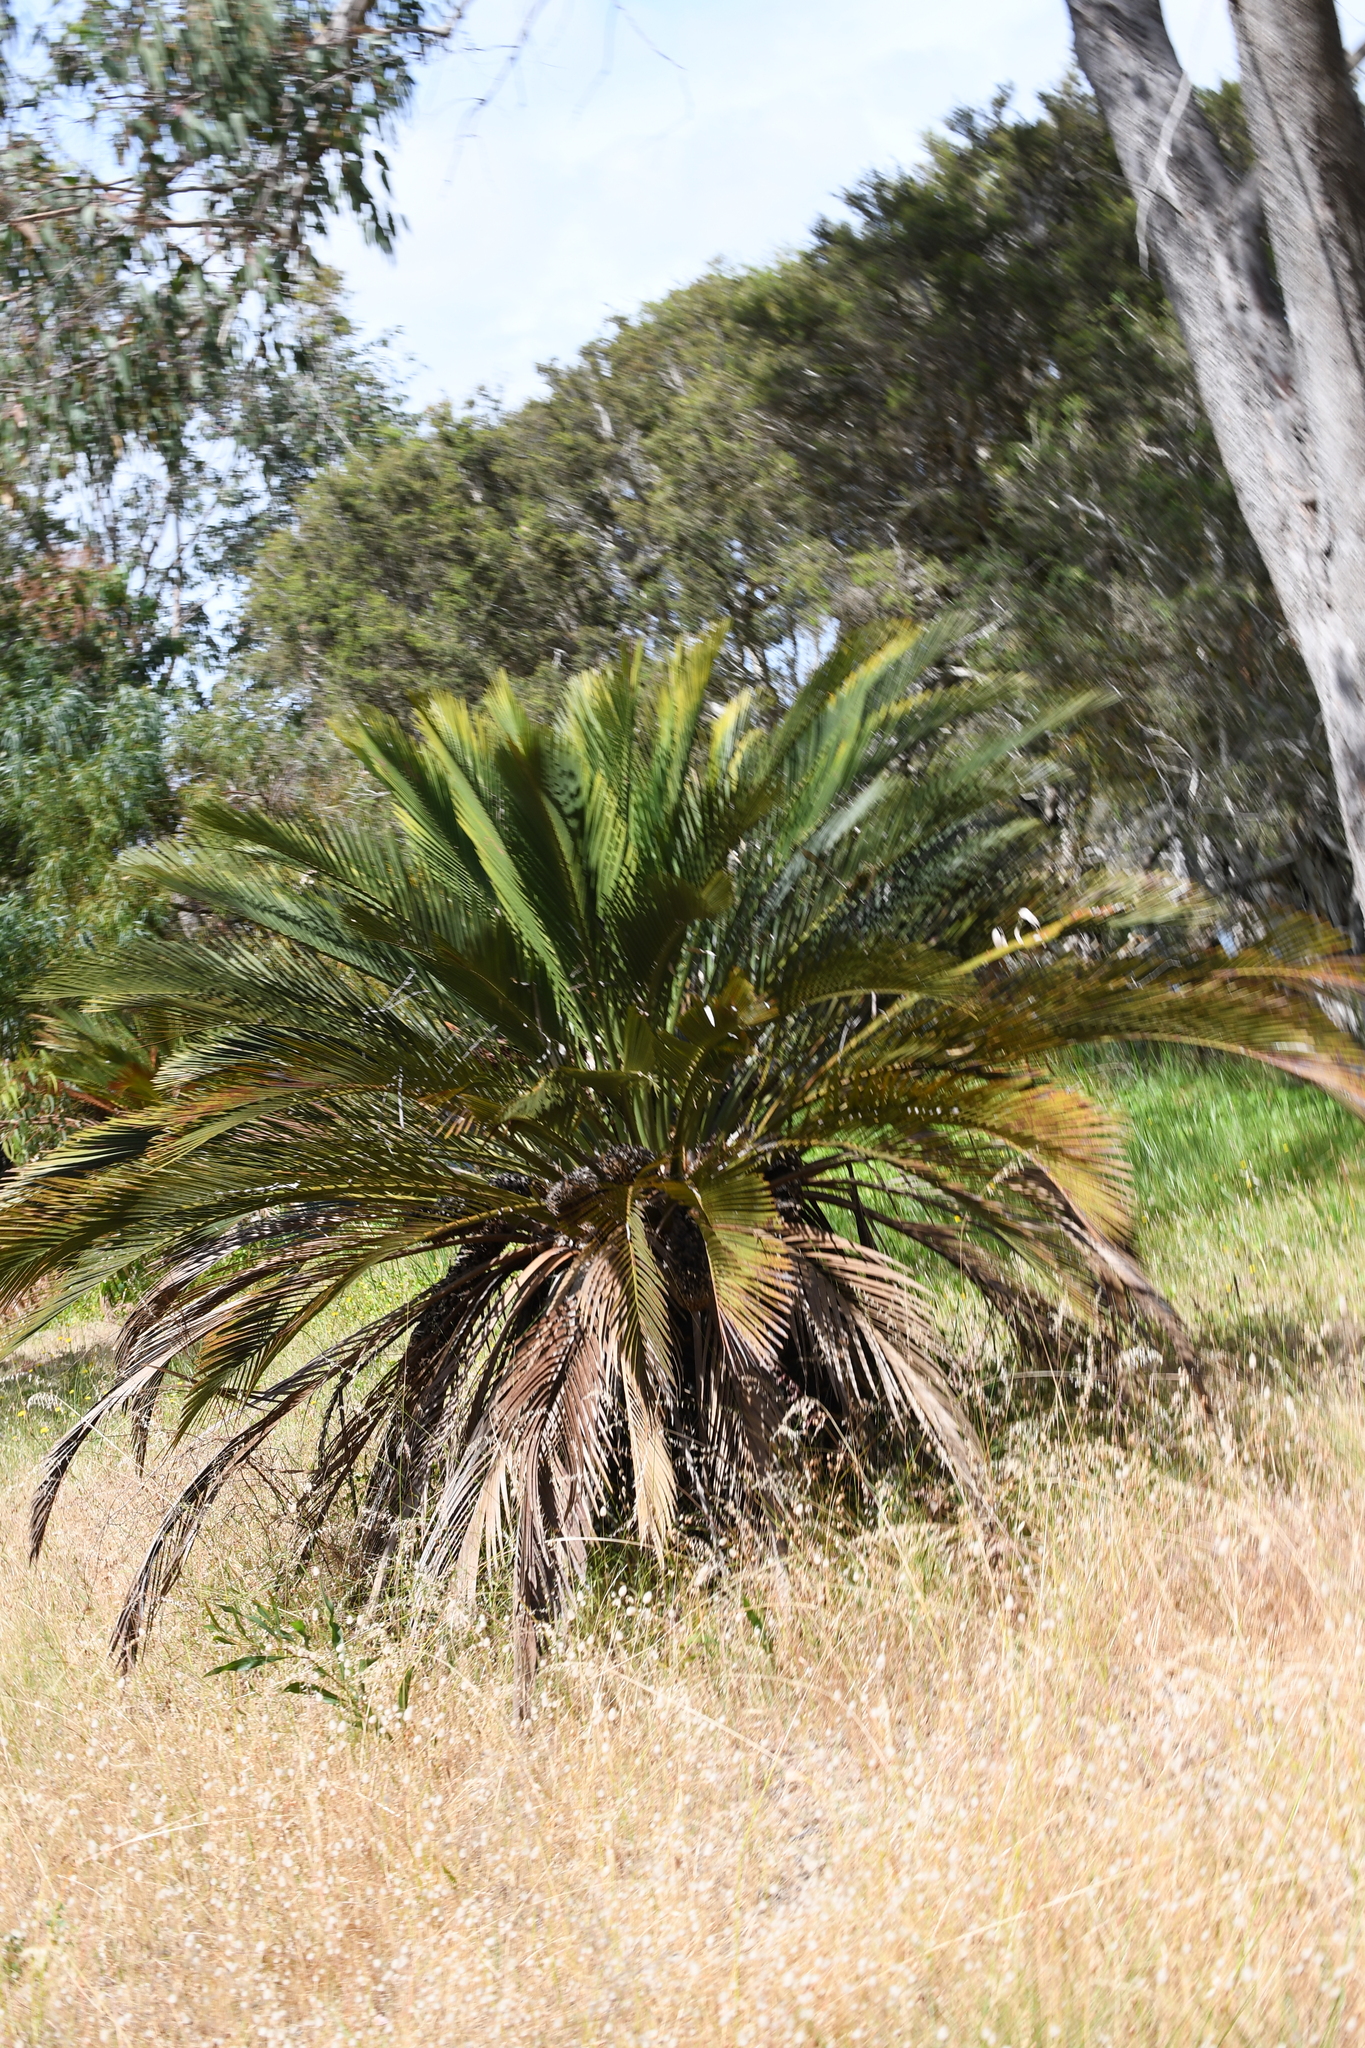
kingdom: Plantae
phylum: Tracheophyta
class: Cycadopsida
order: Cycadales
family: Zamiaceae
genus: Macrozamia
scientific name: Macrozamia dyeri
